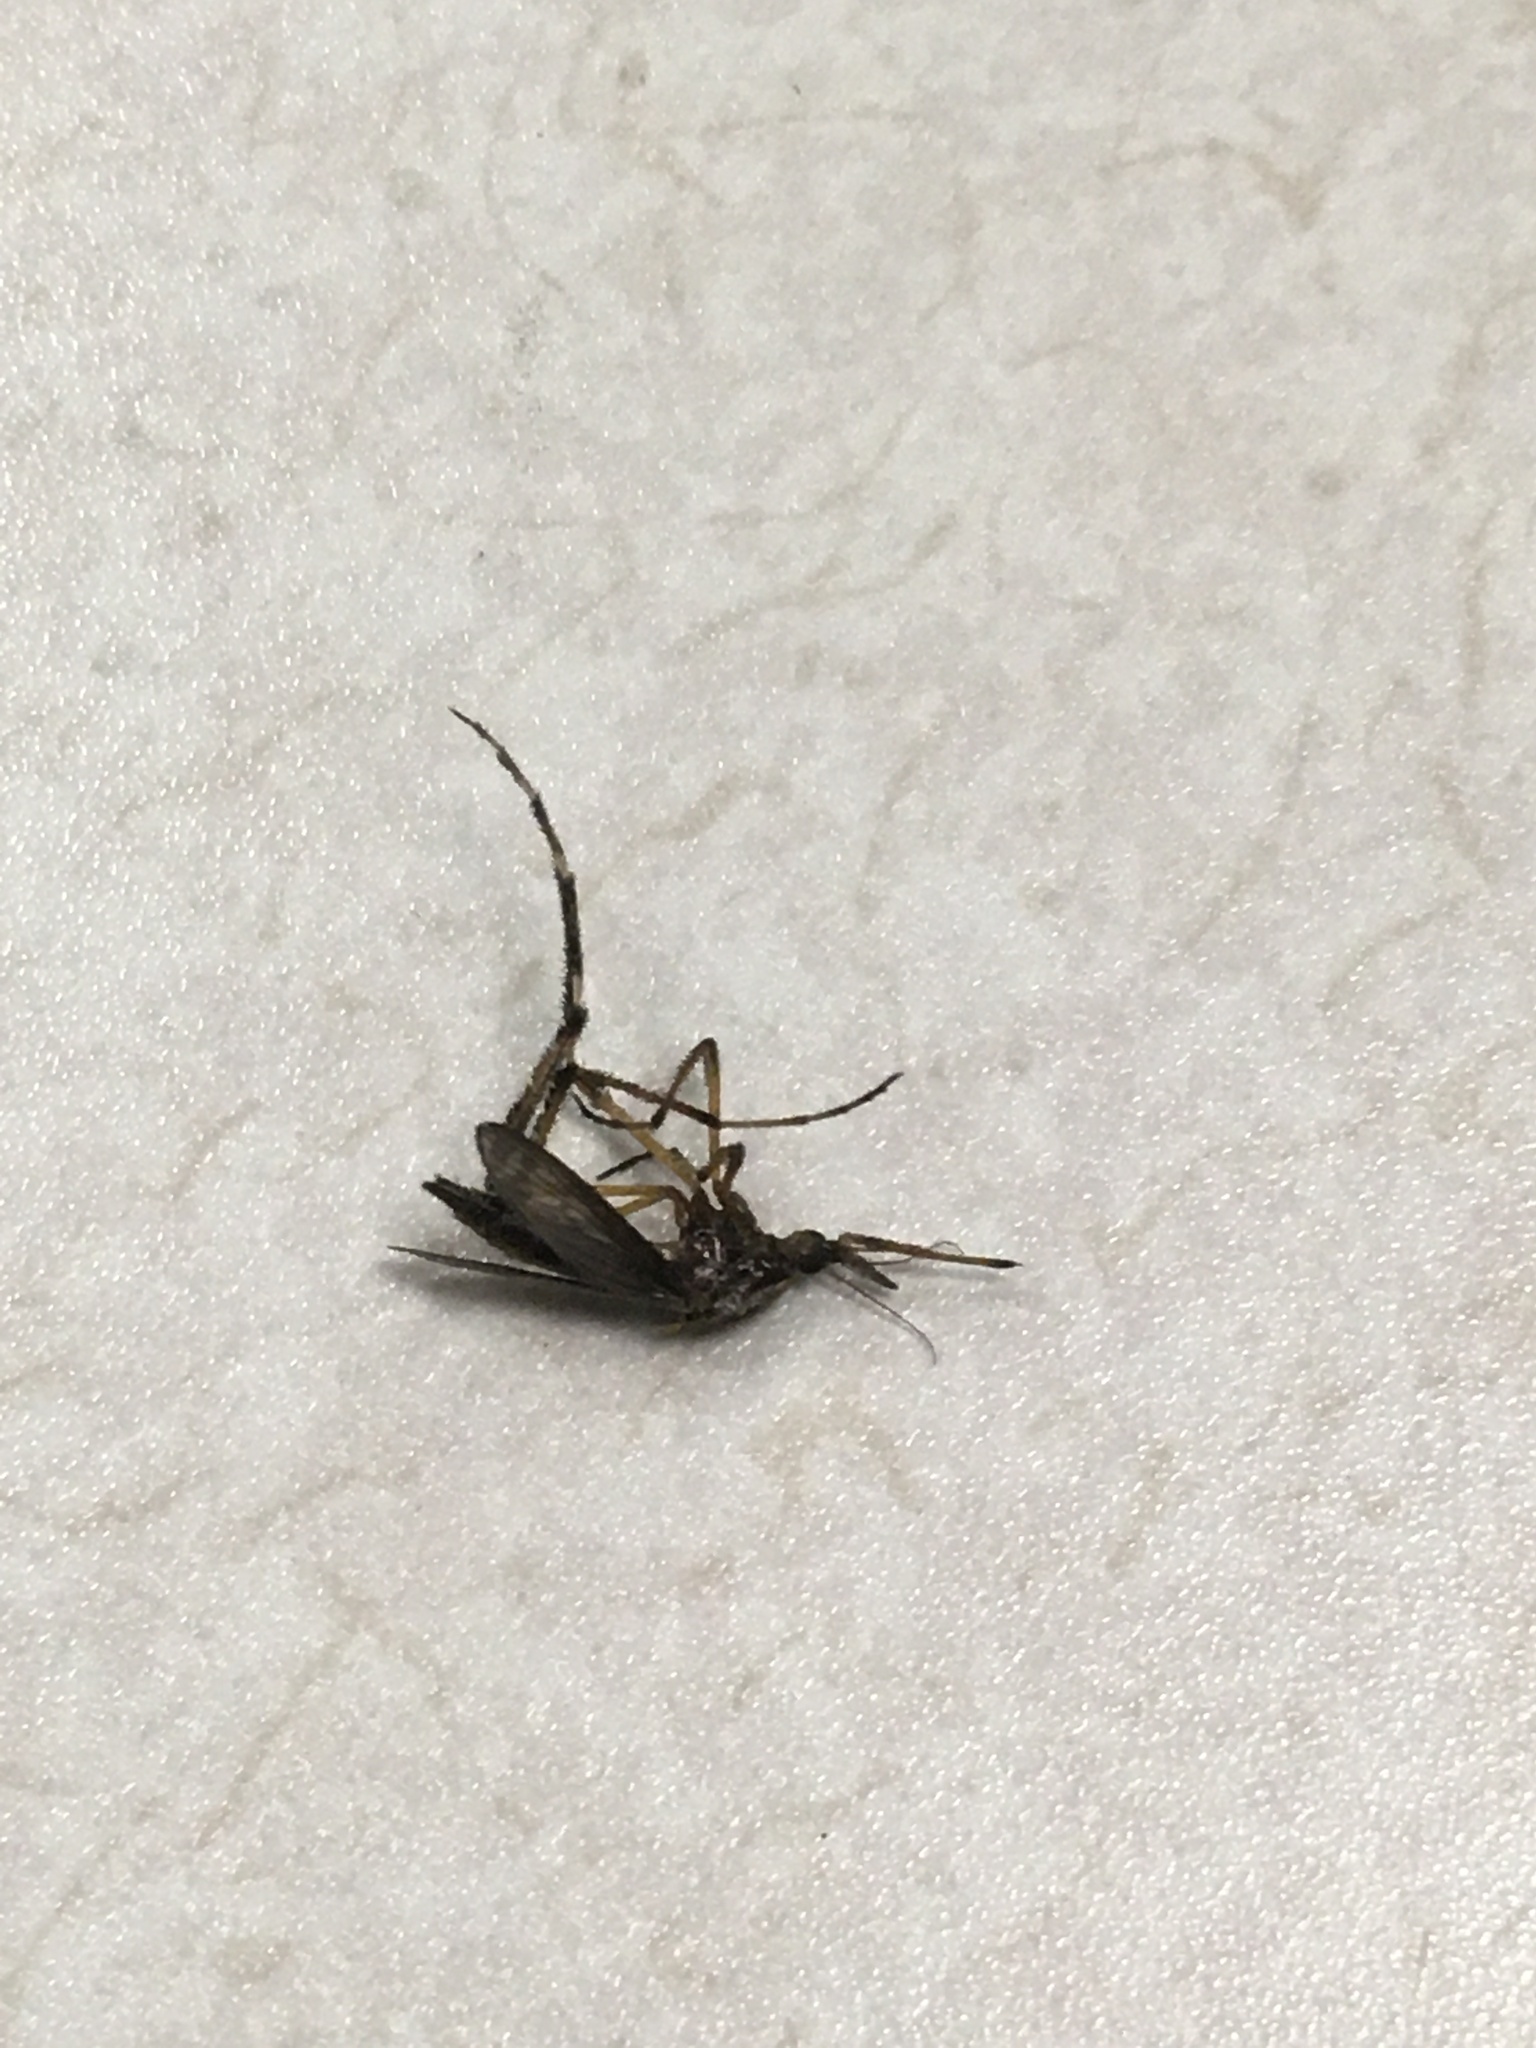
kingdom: Animalia
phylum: Arthropoda
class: Insecta
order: Diptera
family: Culicidae
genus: Psorophora
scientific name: Psorophora ciliata
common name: Gallinipper
